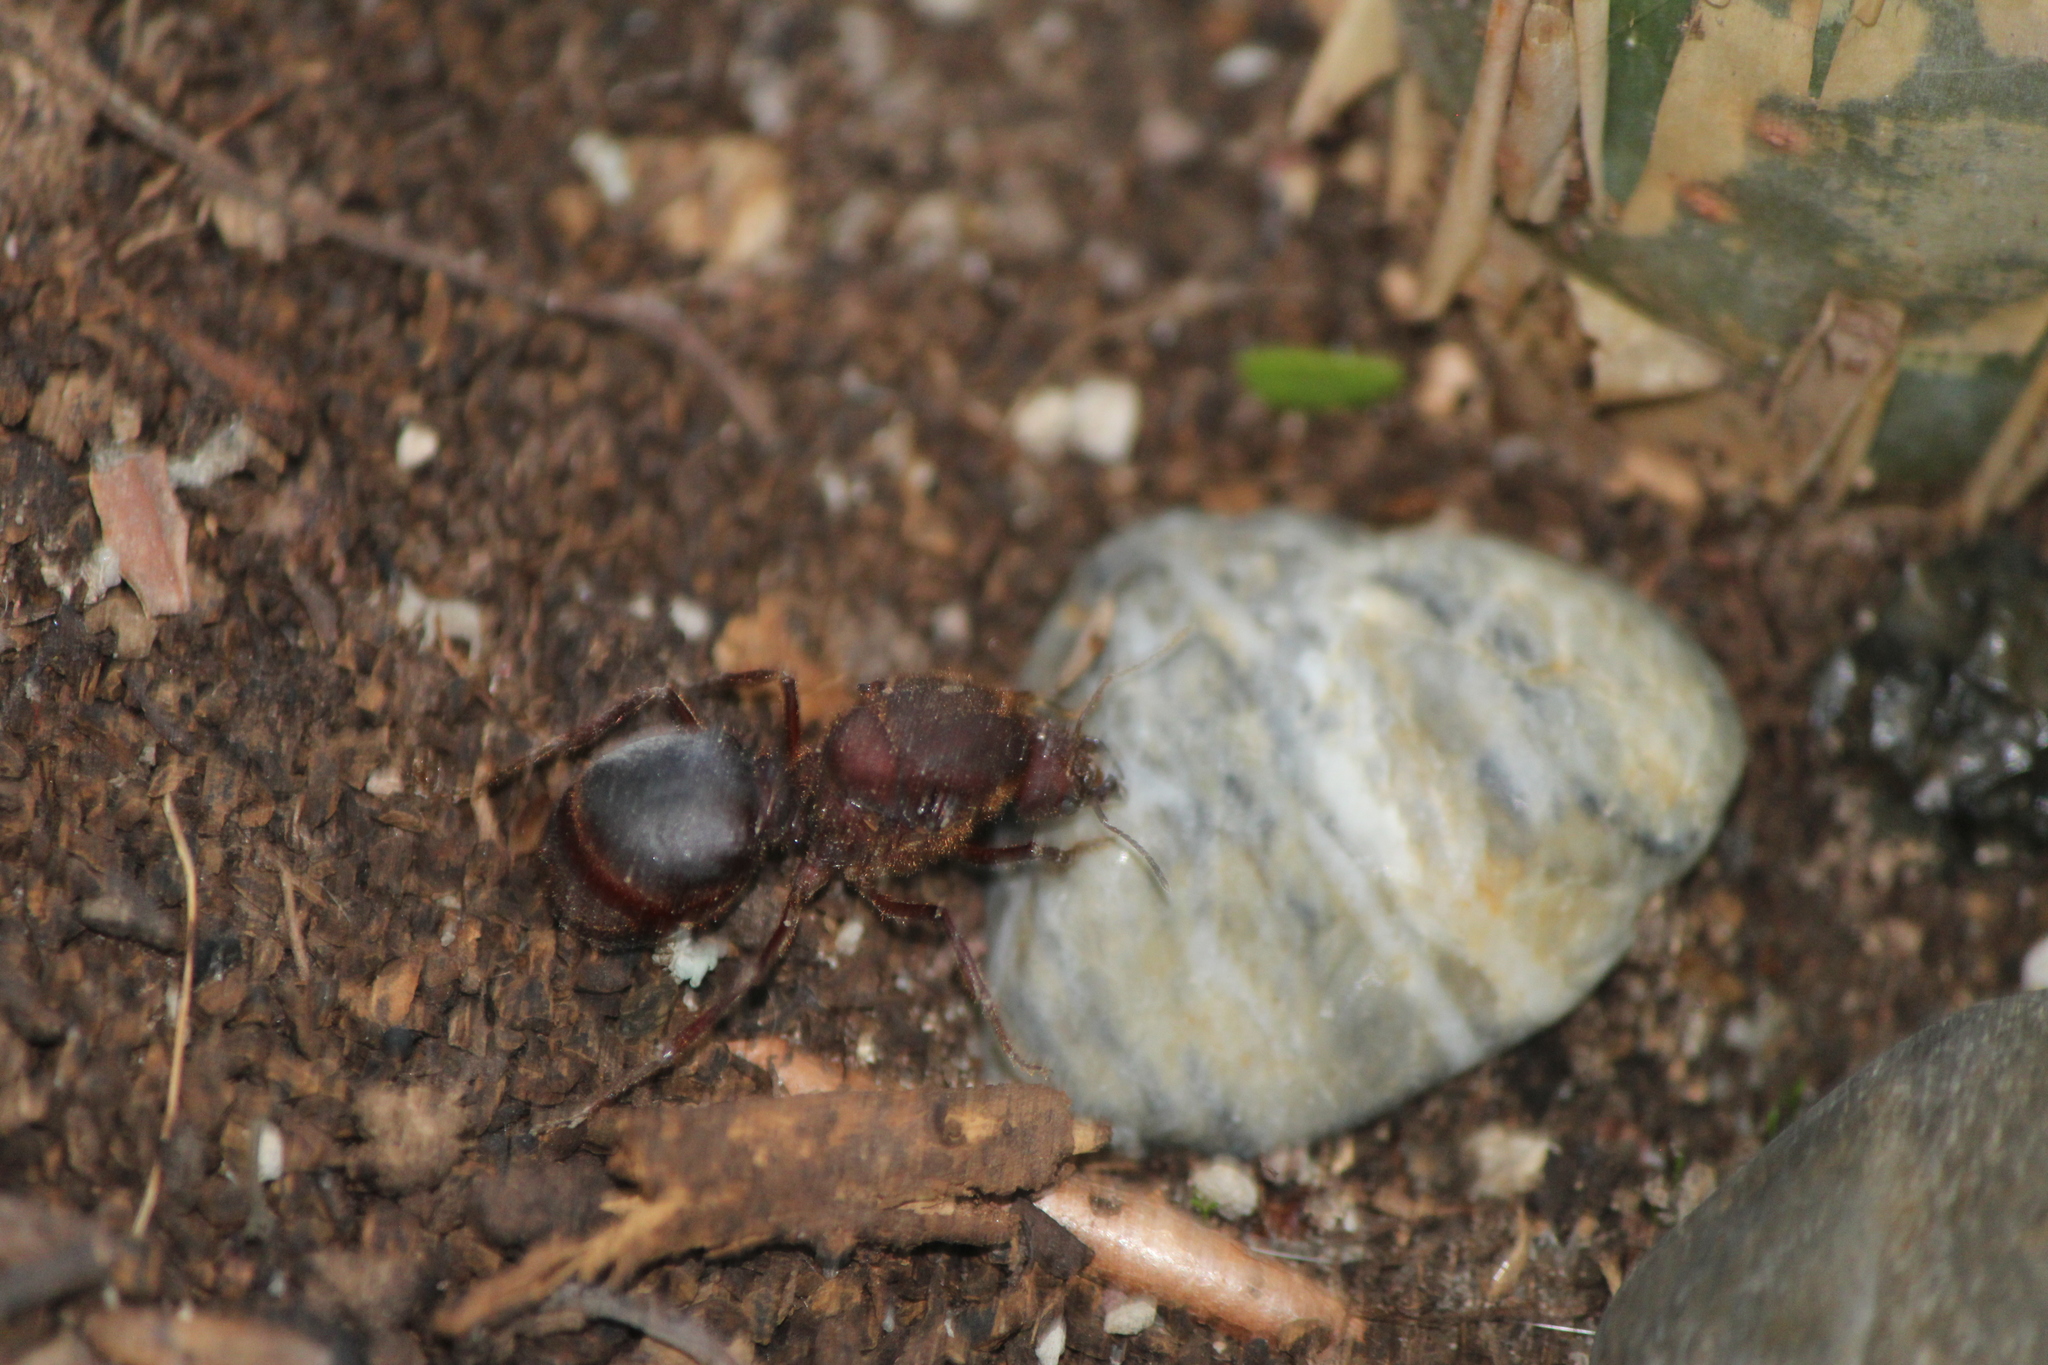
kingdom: Animalia
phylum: Arthropoda
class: Insecta
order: Hymenoptera
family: Formicidae
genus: Atta
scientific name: Atta mexicana
